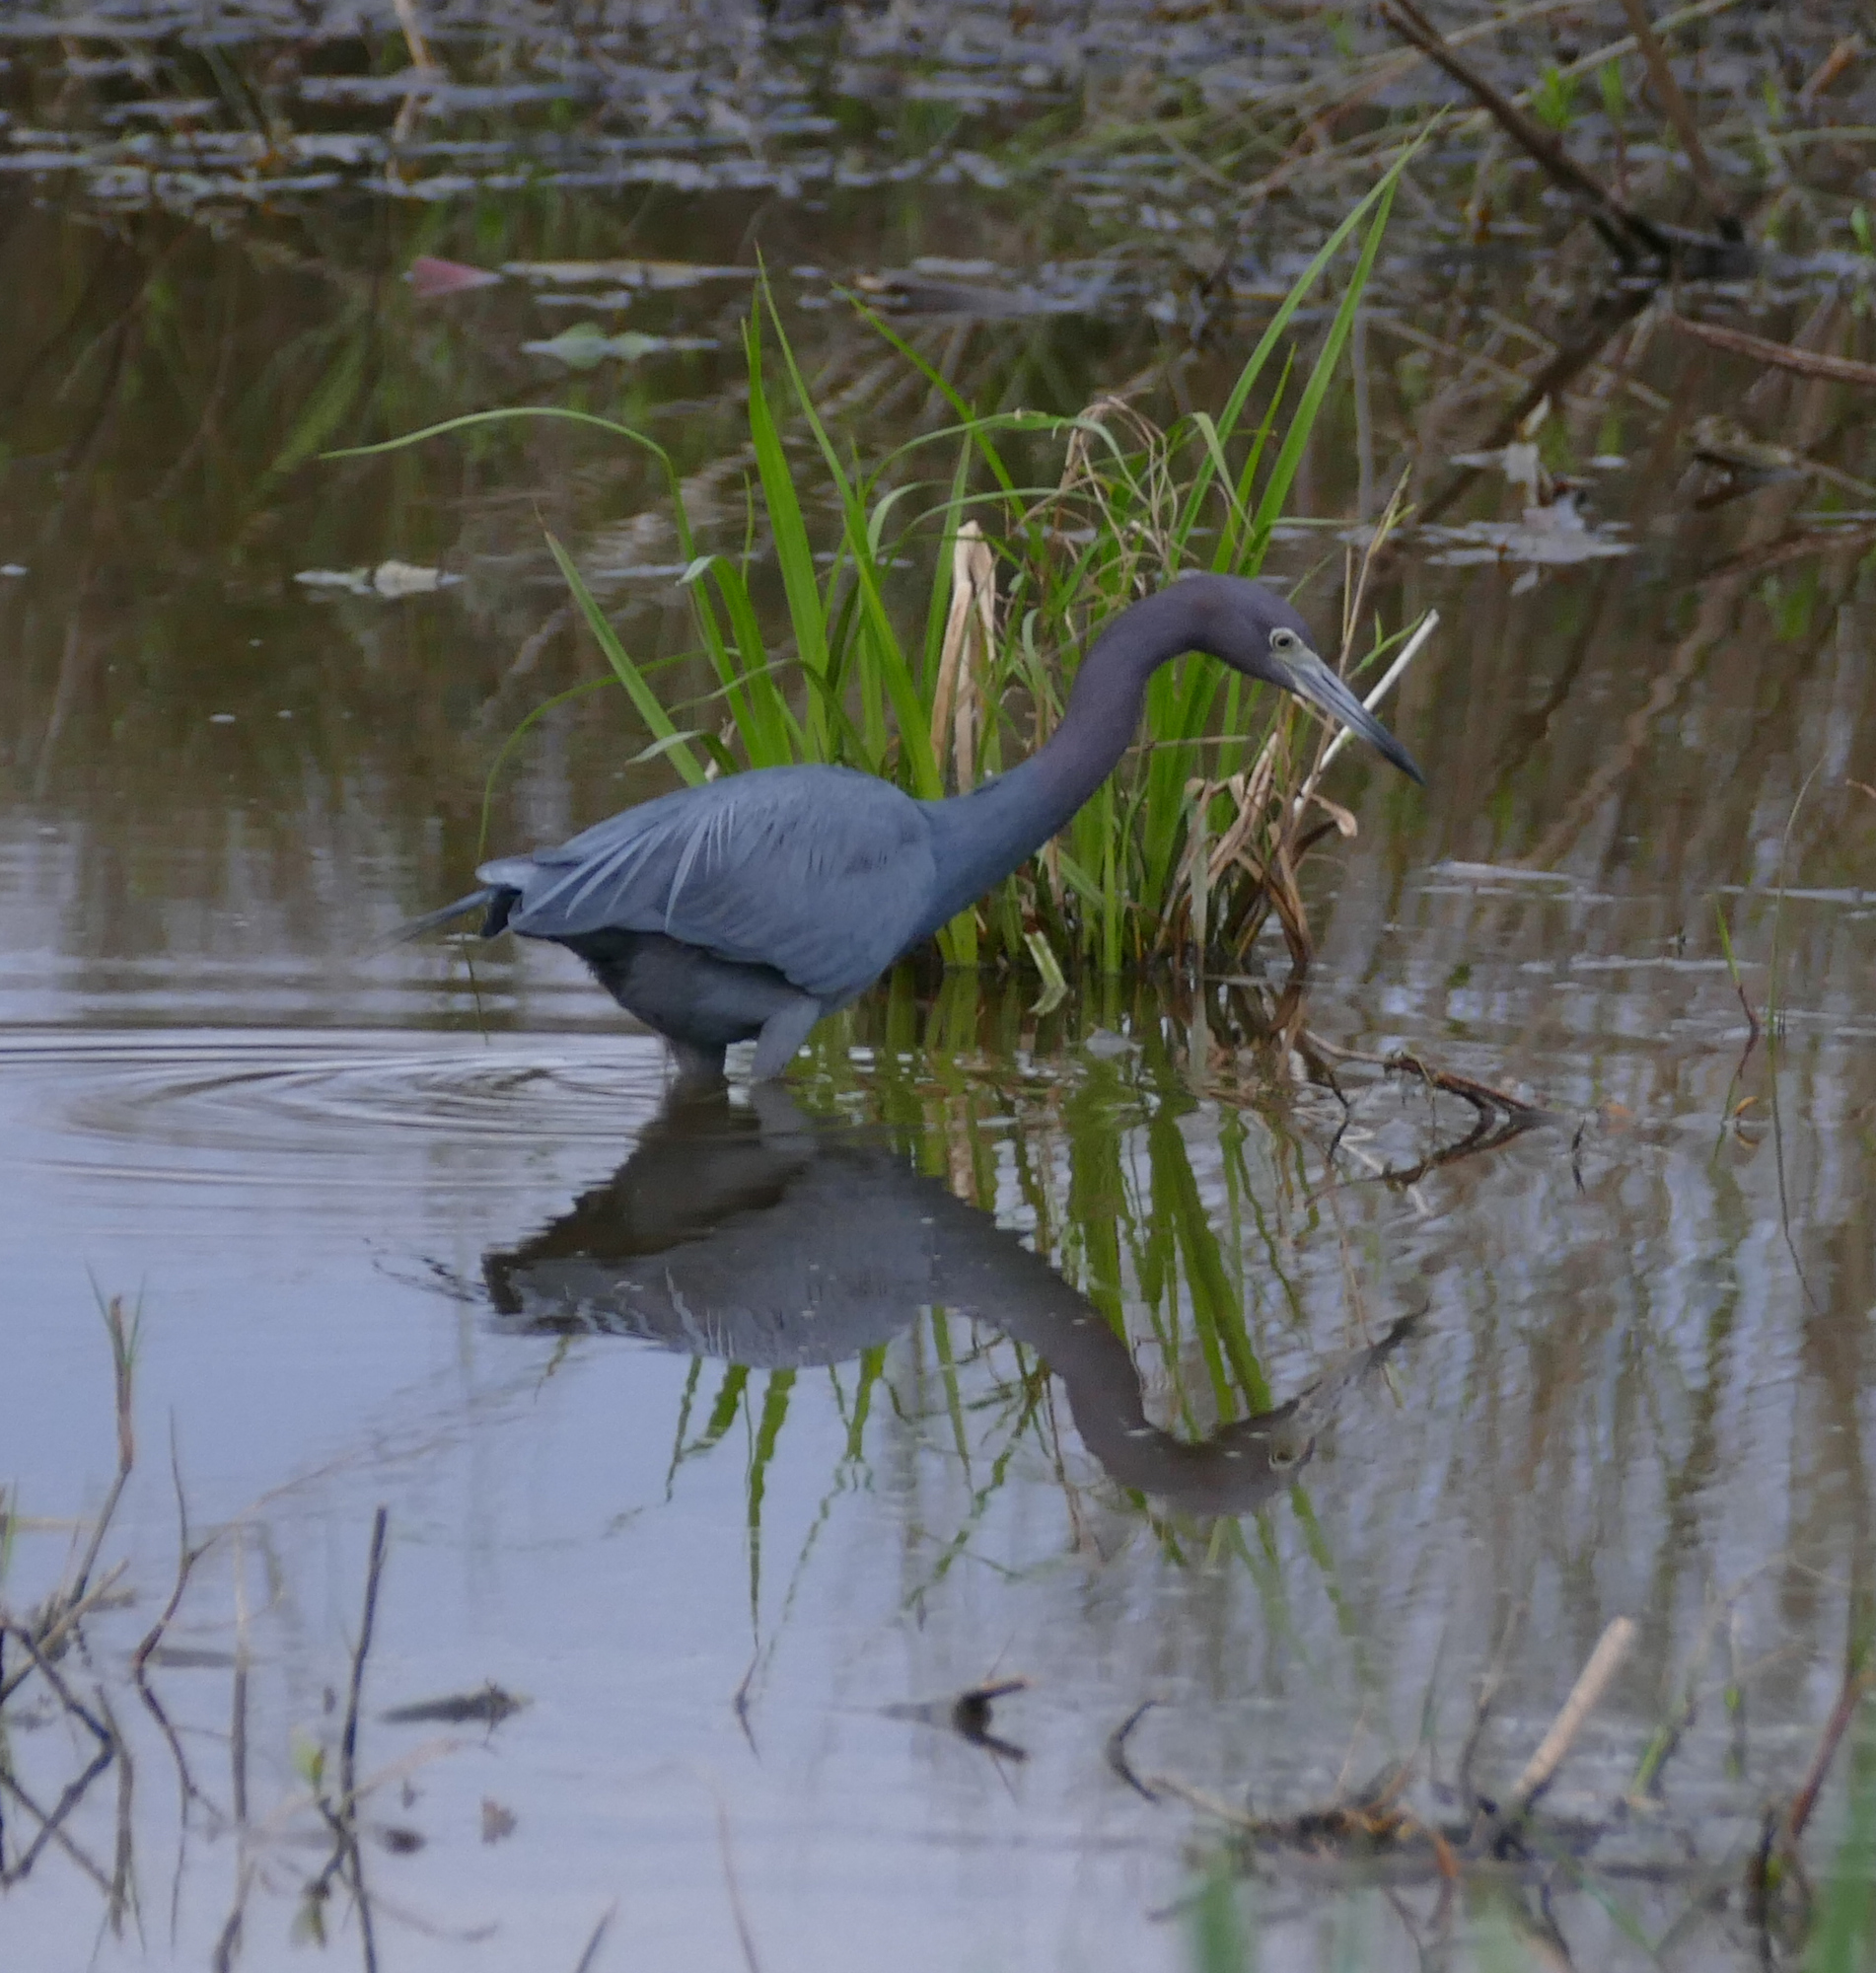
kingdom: Animalia
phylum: Chordata
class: Aves
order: Pelecaniformes
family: Ardeidae
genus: Egretta
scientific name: Egretta caerulea
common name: Little blue heron
